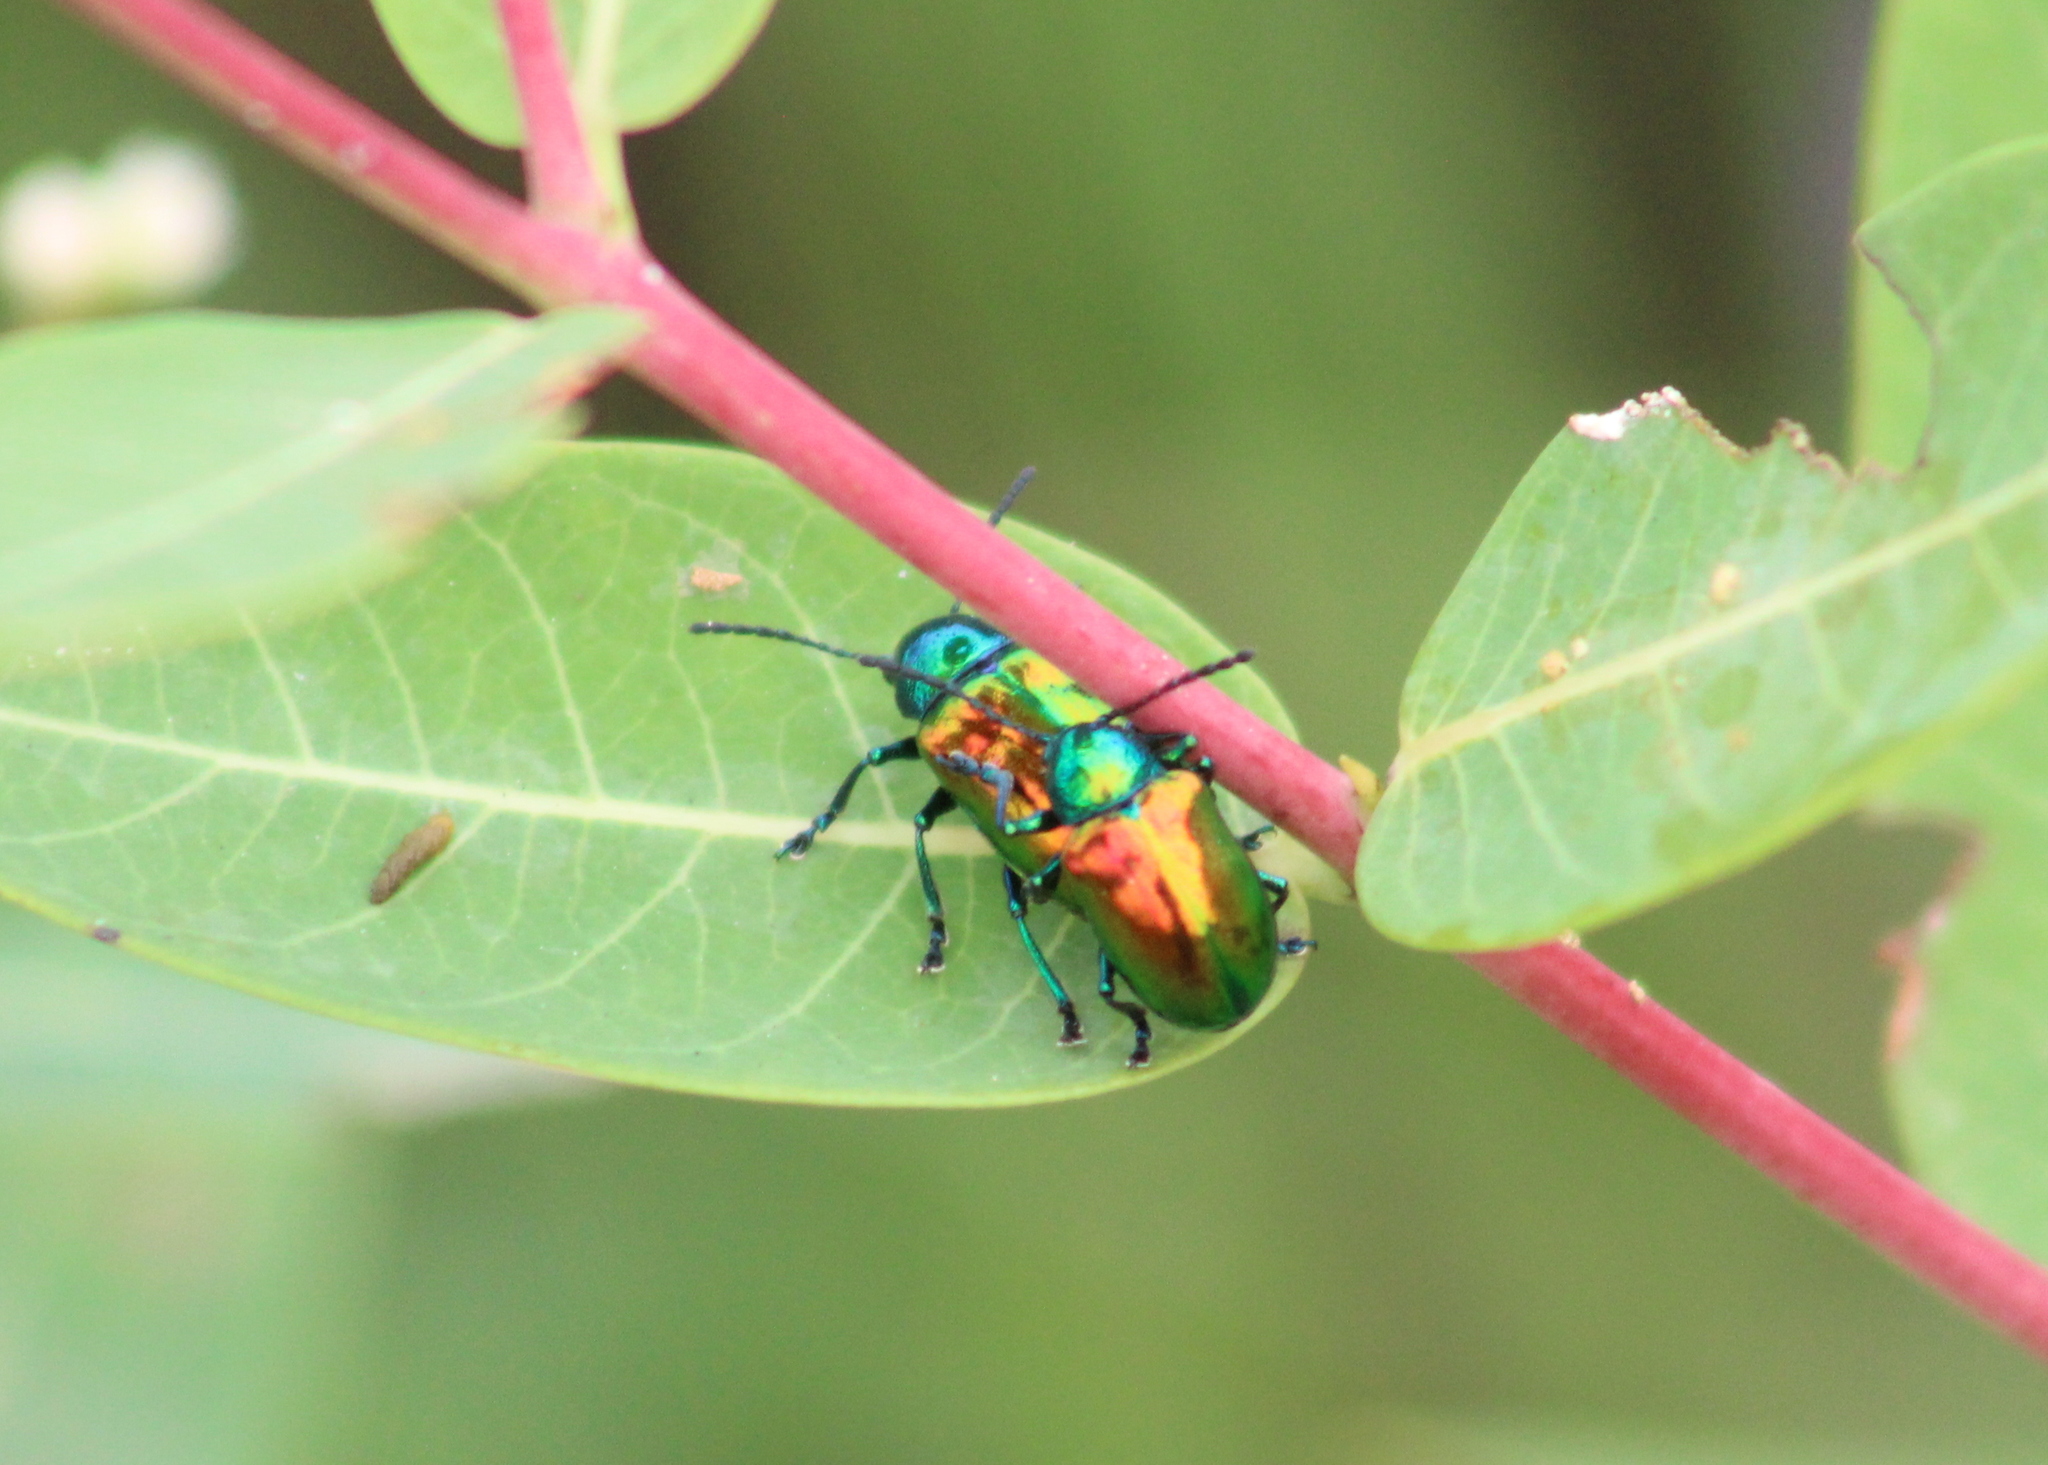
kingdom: Animalia
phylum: Arthropoda
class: Insecta
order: Coleoptera
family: Chrysomelidae
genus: Chrysochus
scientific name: Chrysochus auratus
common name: Dogbane leaf beetle
